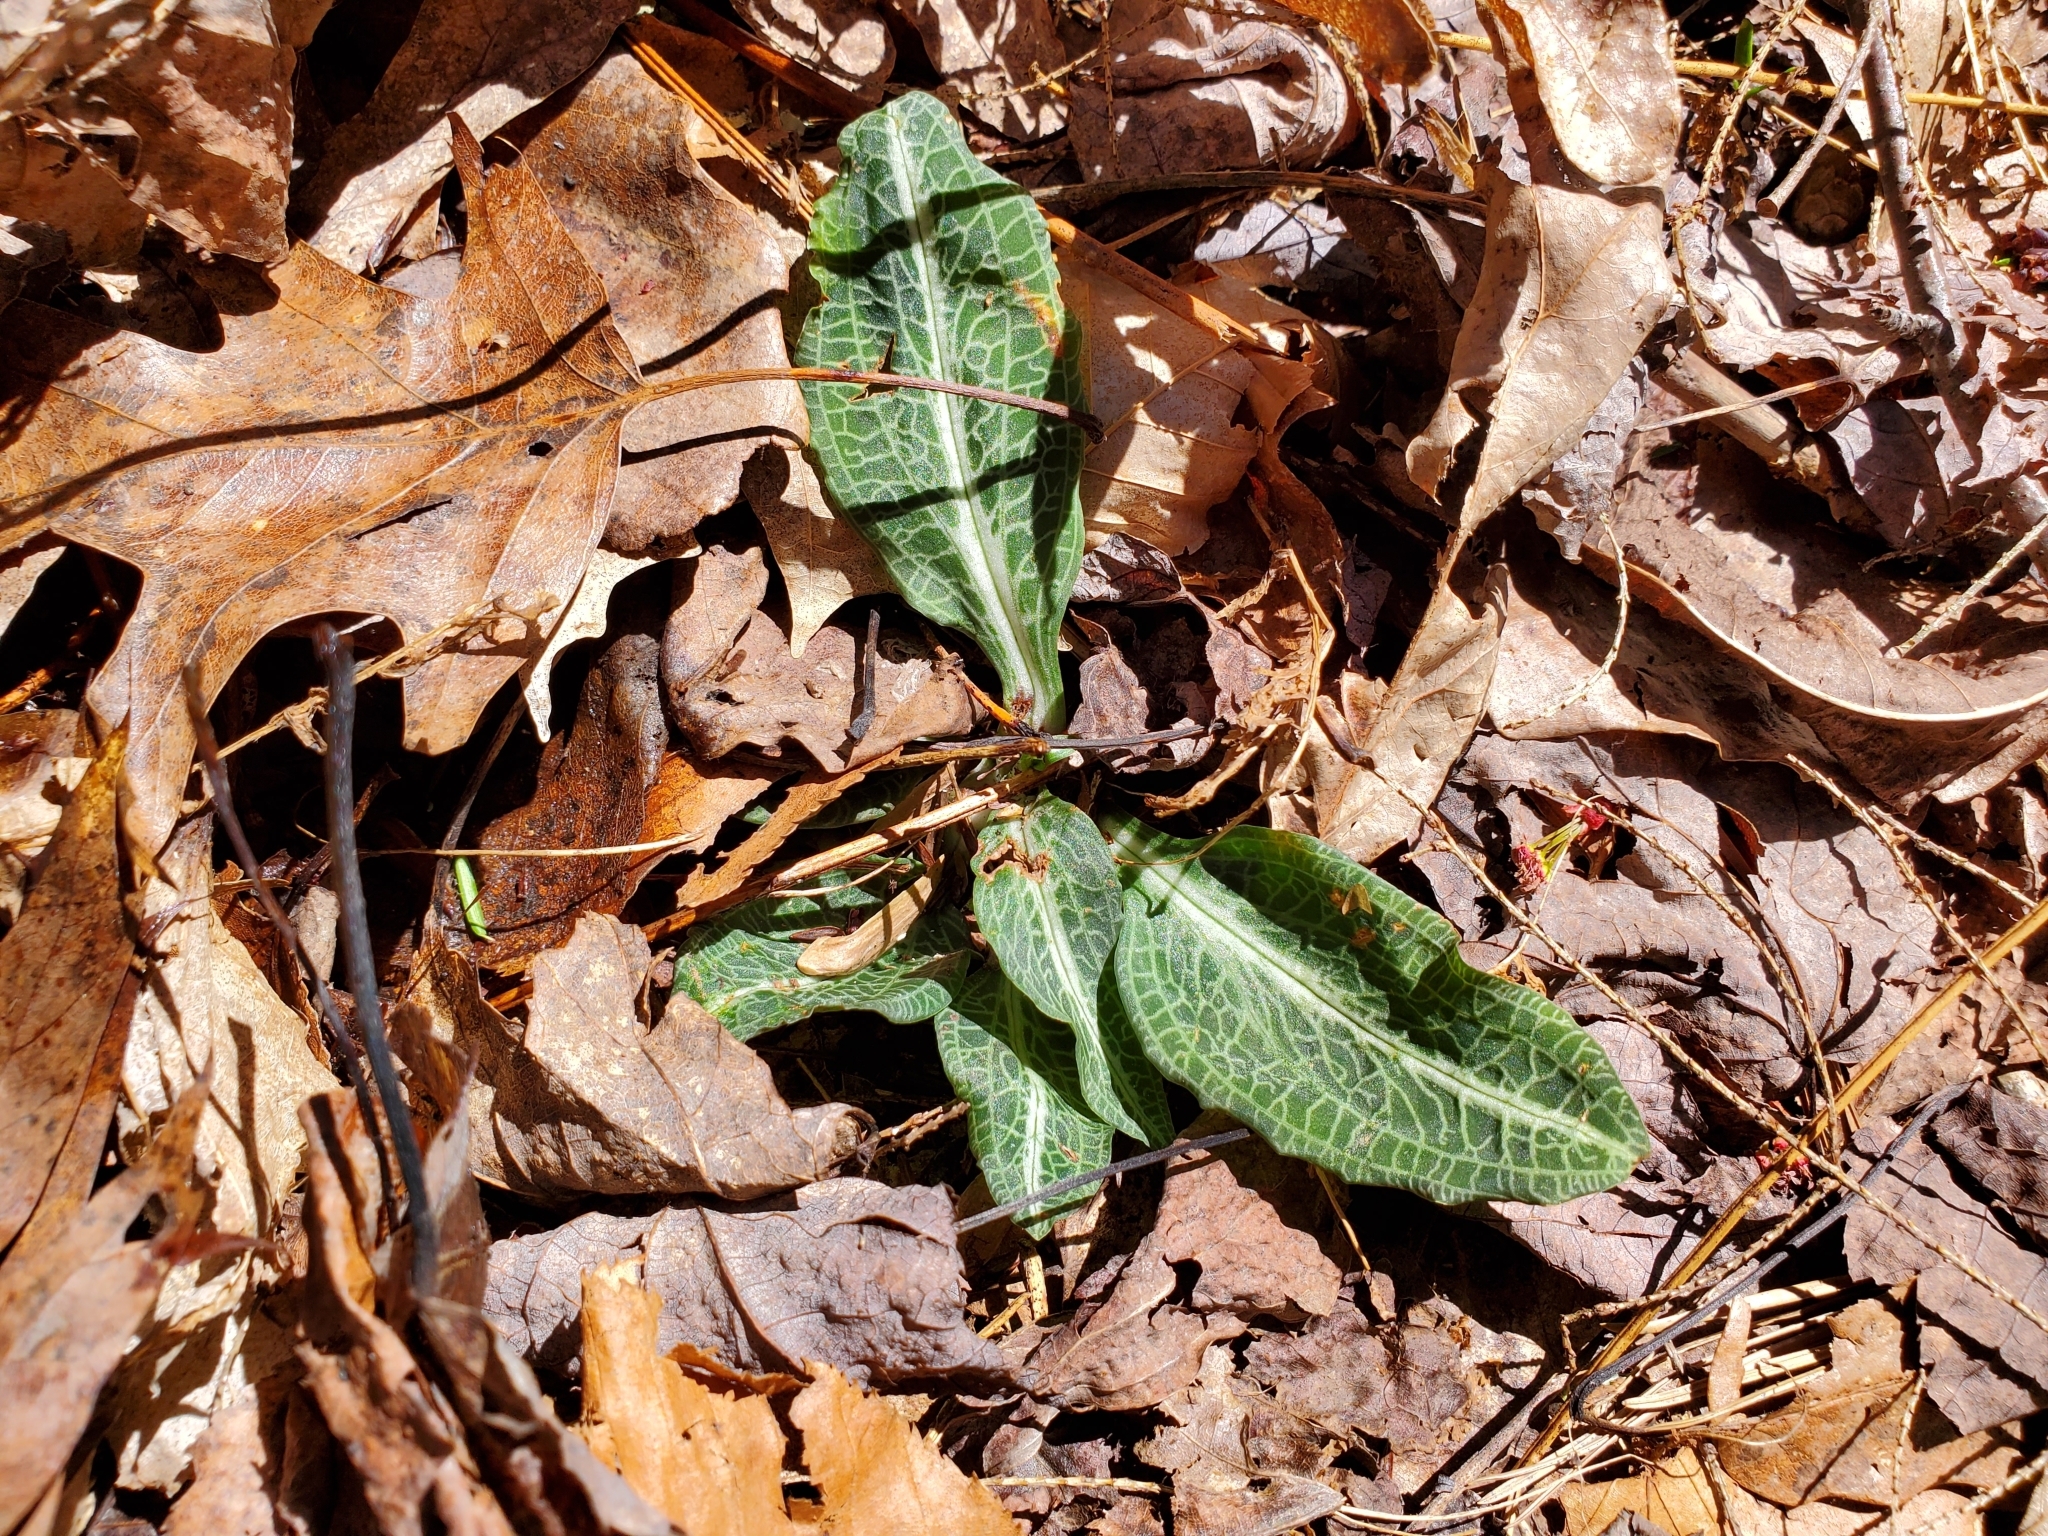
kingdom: Plantae
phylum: Tracheophyta
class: Liliopsida
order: Asparagales
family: Orchidaceae
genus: Goodyera
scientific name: Goodyera pubescens
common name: Downy rattlesnake-plantain
